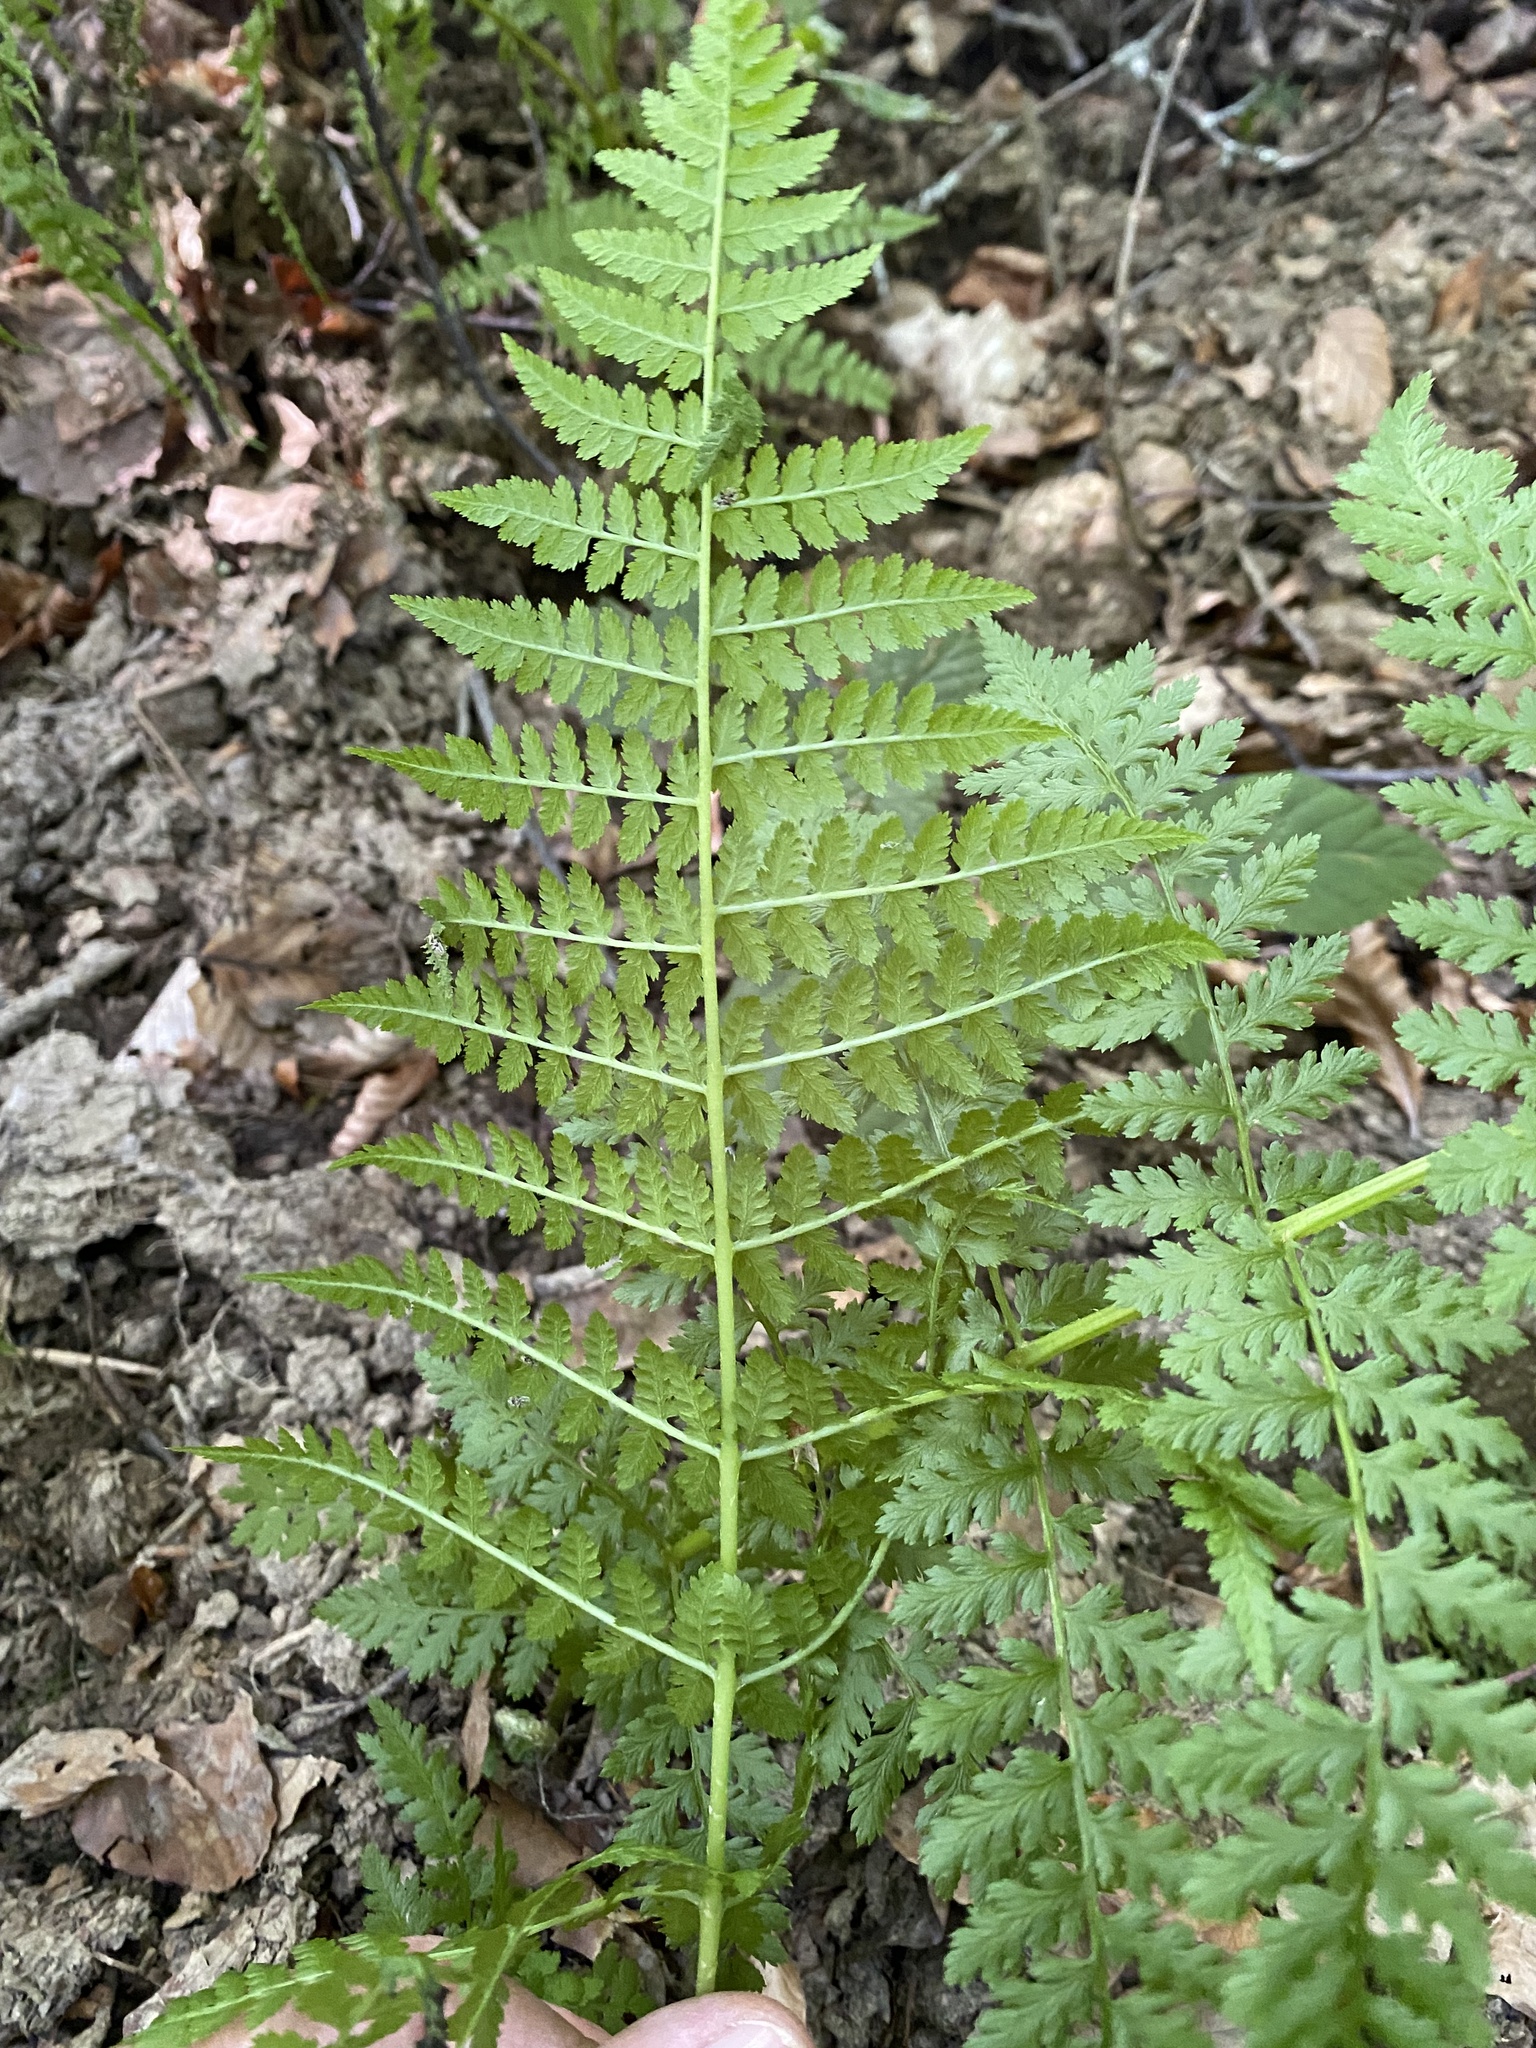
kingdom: Plantae
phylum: Tracheophyta
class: Polypodiopsida
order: Polypodiales
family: Athyriaceae
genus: Pseudathyrium
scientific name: Pseudathyrium alpestre
